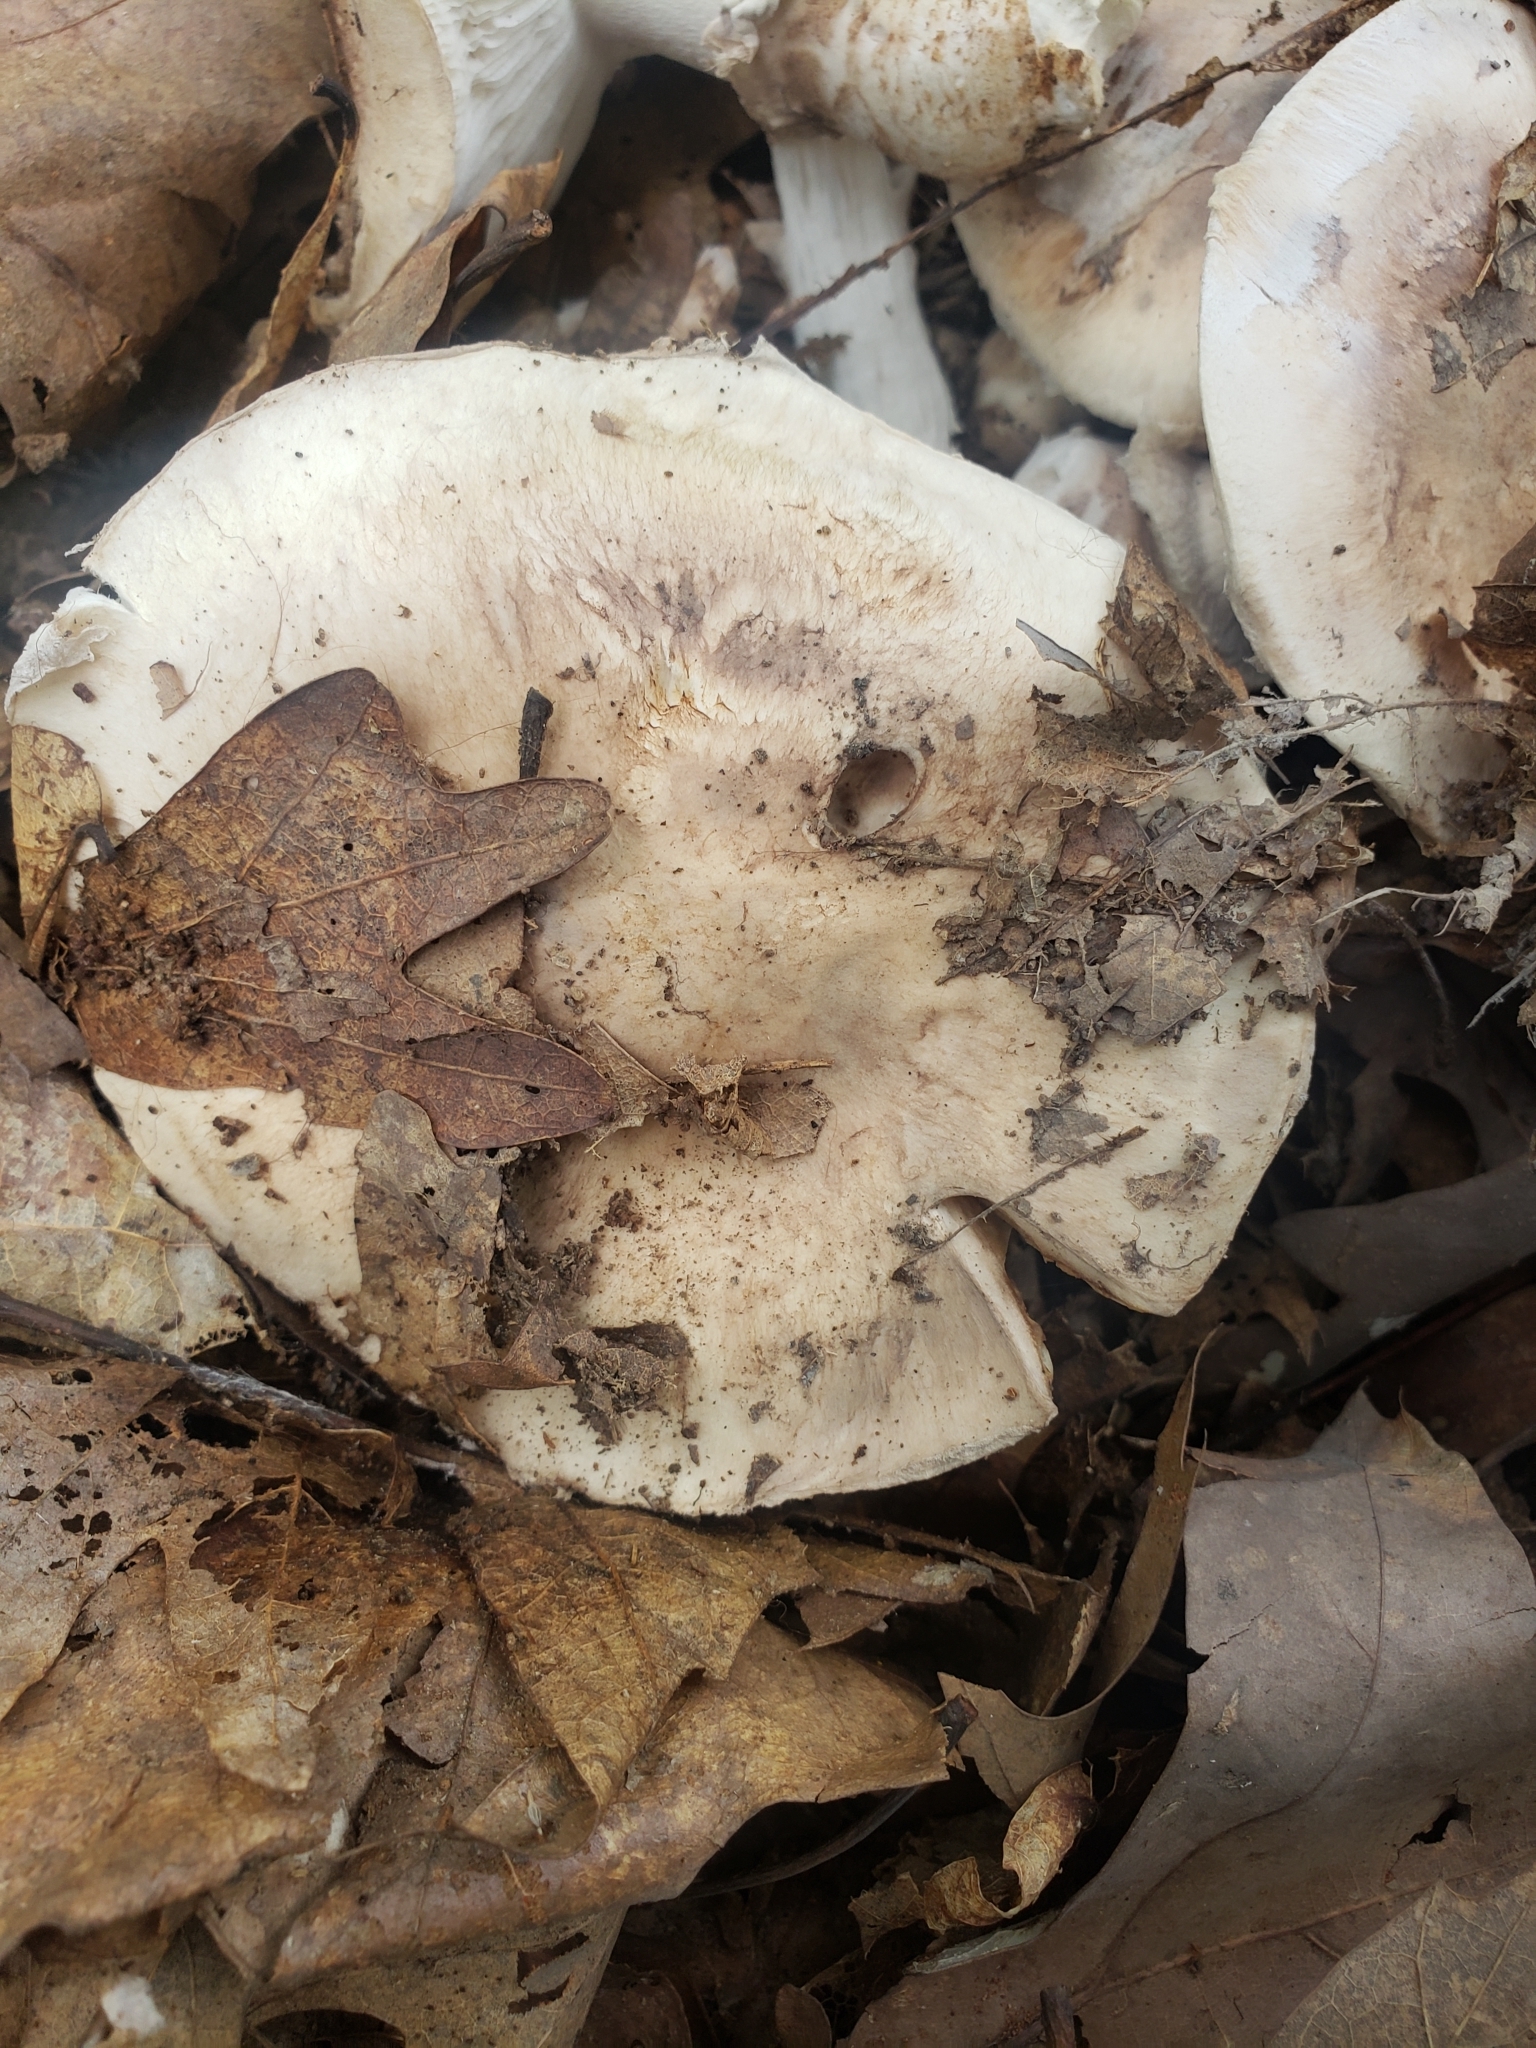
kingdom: Fungi
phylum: Basidiomycota
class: Agaricomycetes
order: Agaricales
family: Tricholomataceae
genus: Tricholoma
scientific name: Tricholoma caligatum
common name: True booted knight
